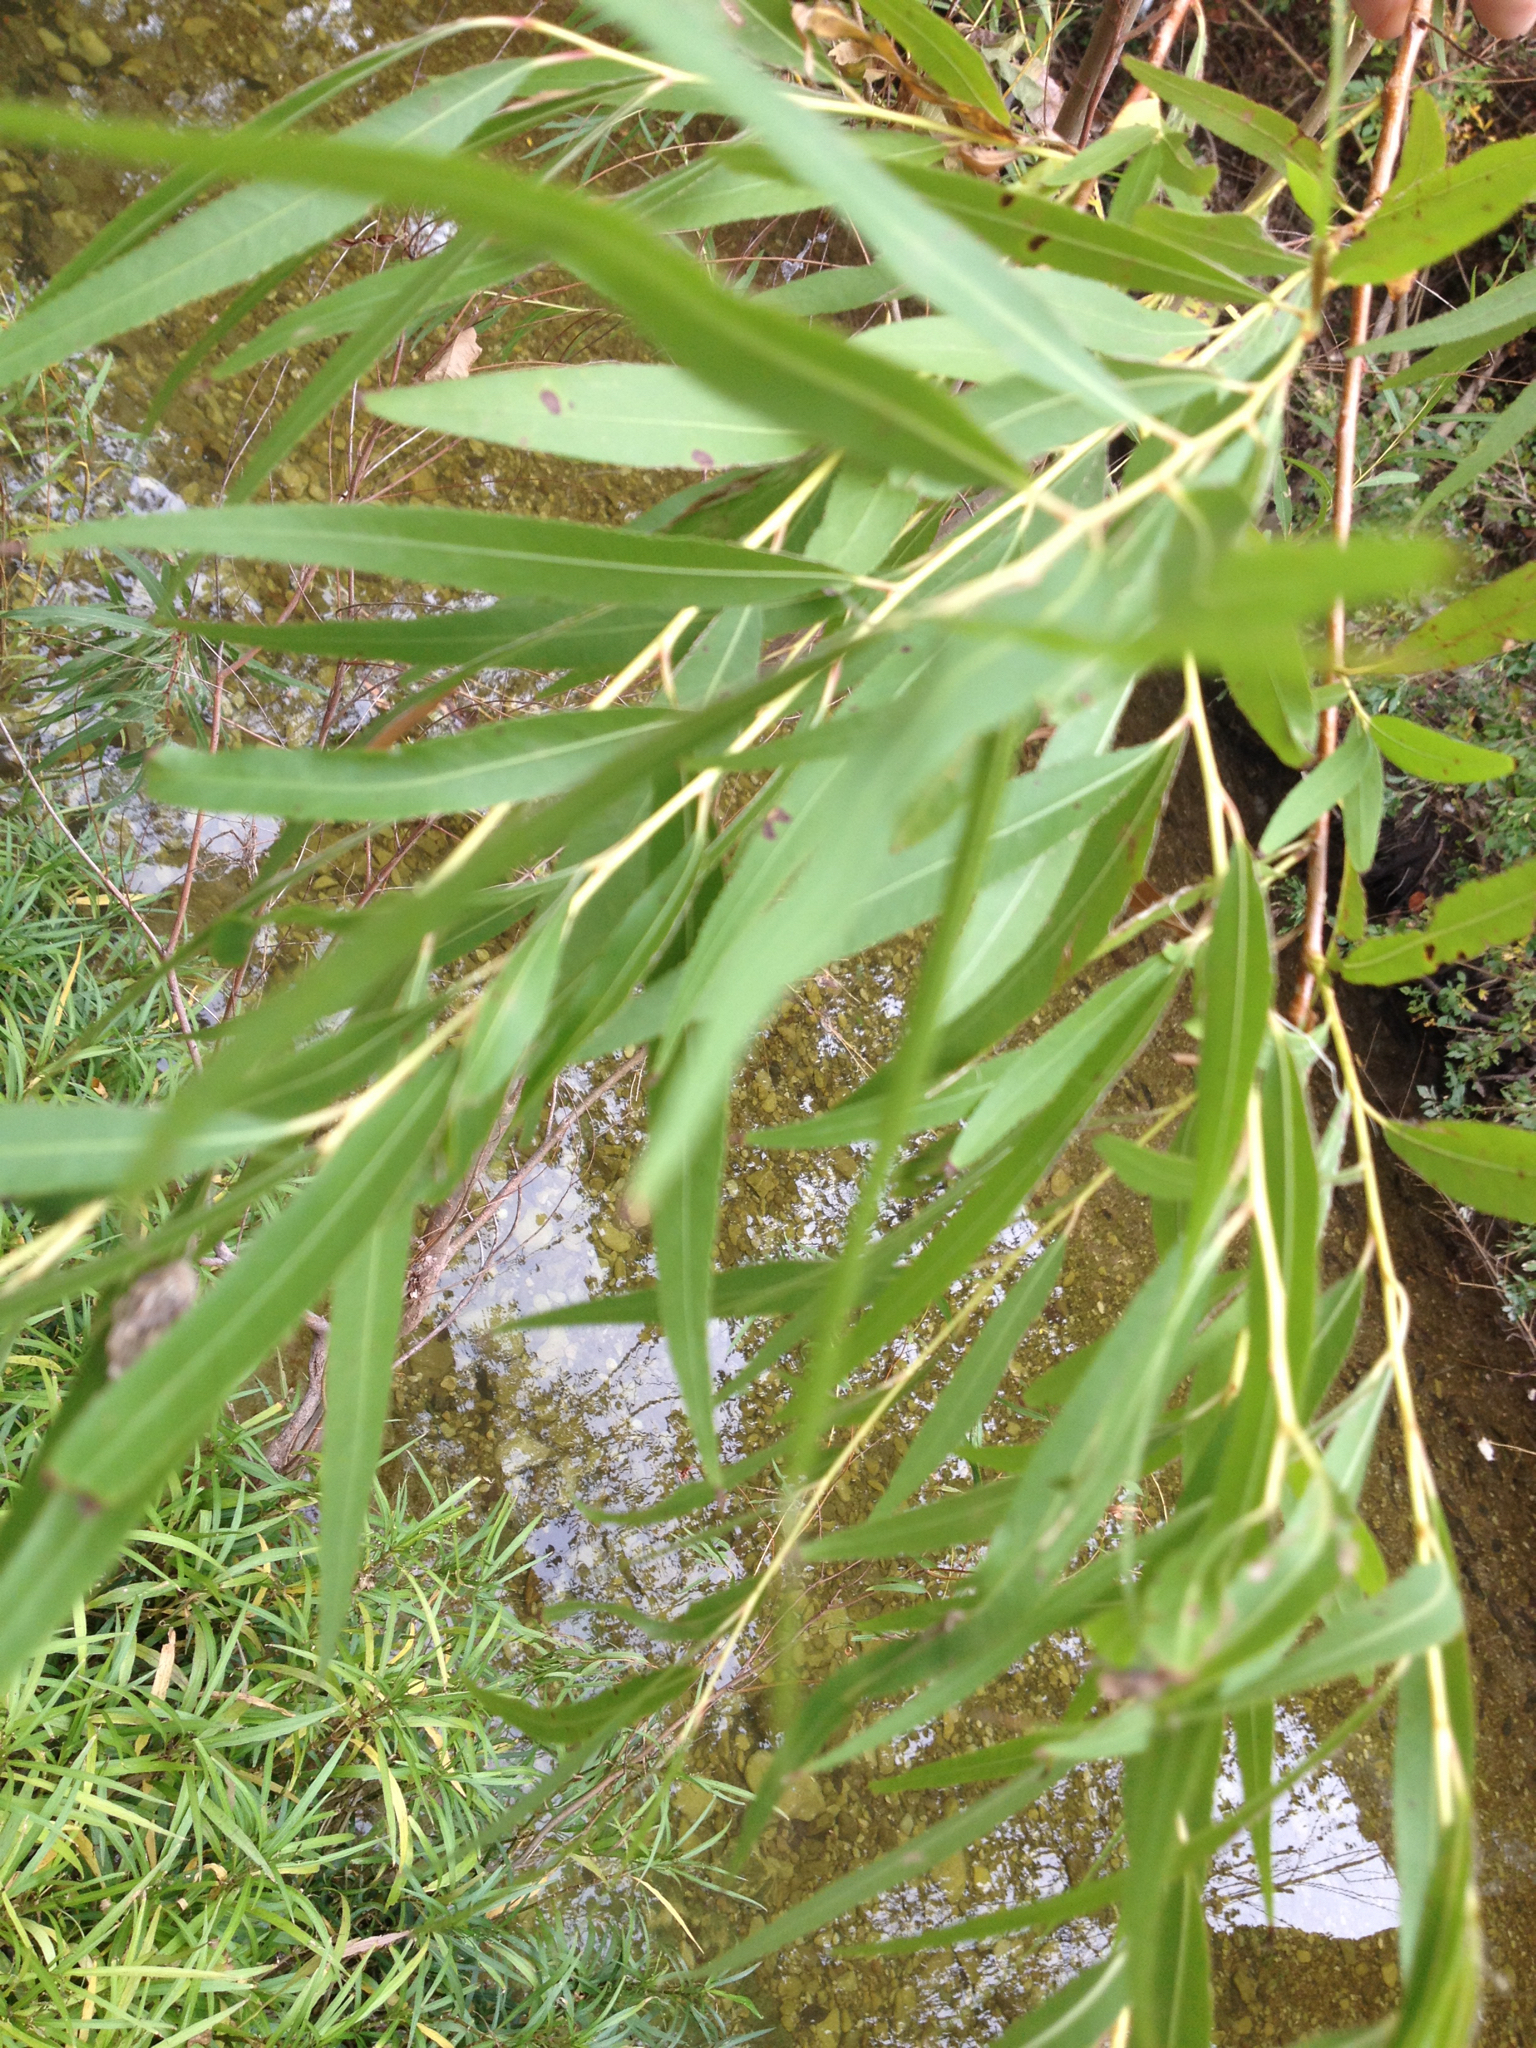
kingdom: Plantae
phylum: Tracheophyta
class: Magnoliopsida
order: Malpighiales
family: Salicaceae
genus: Salix
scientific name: Salix nigra
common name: Black willow
